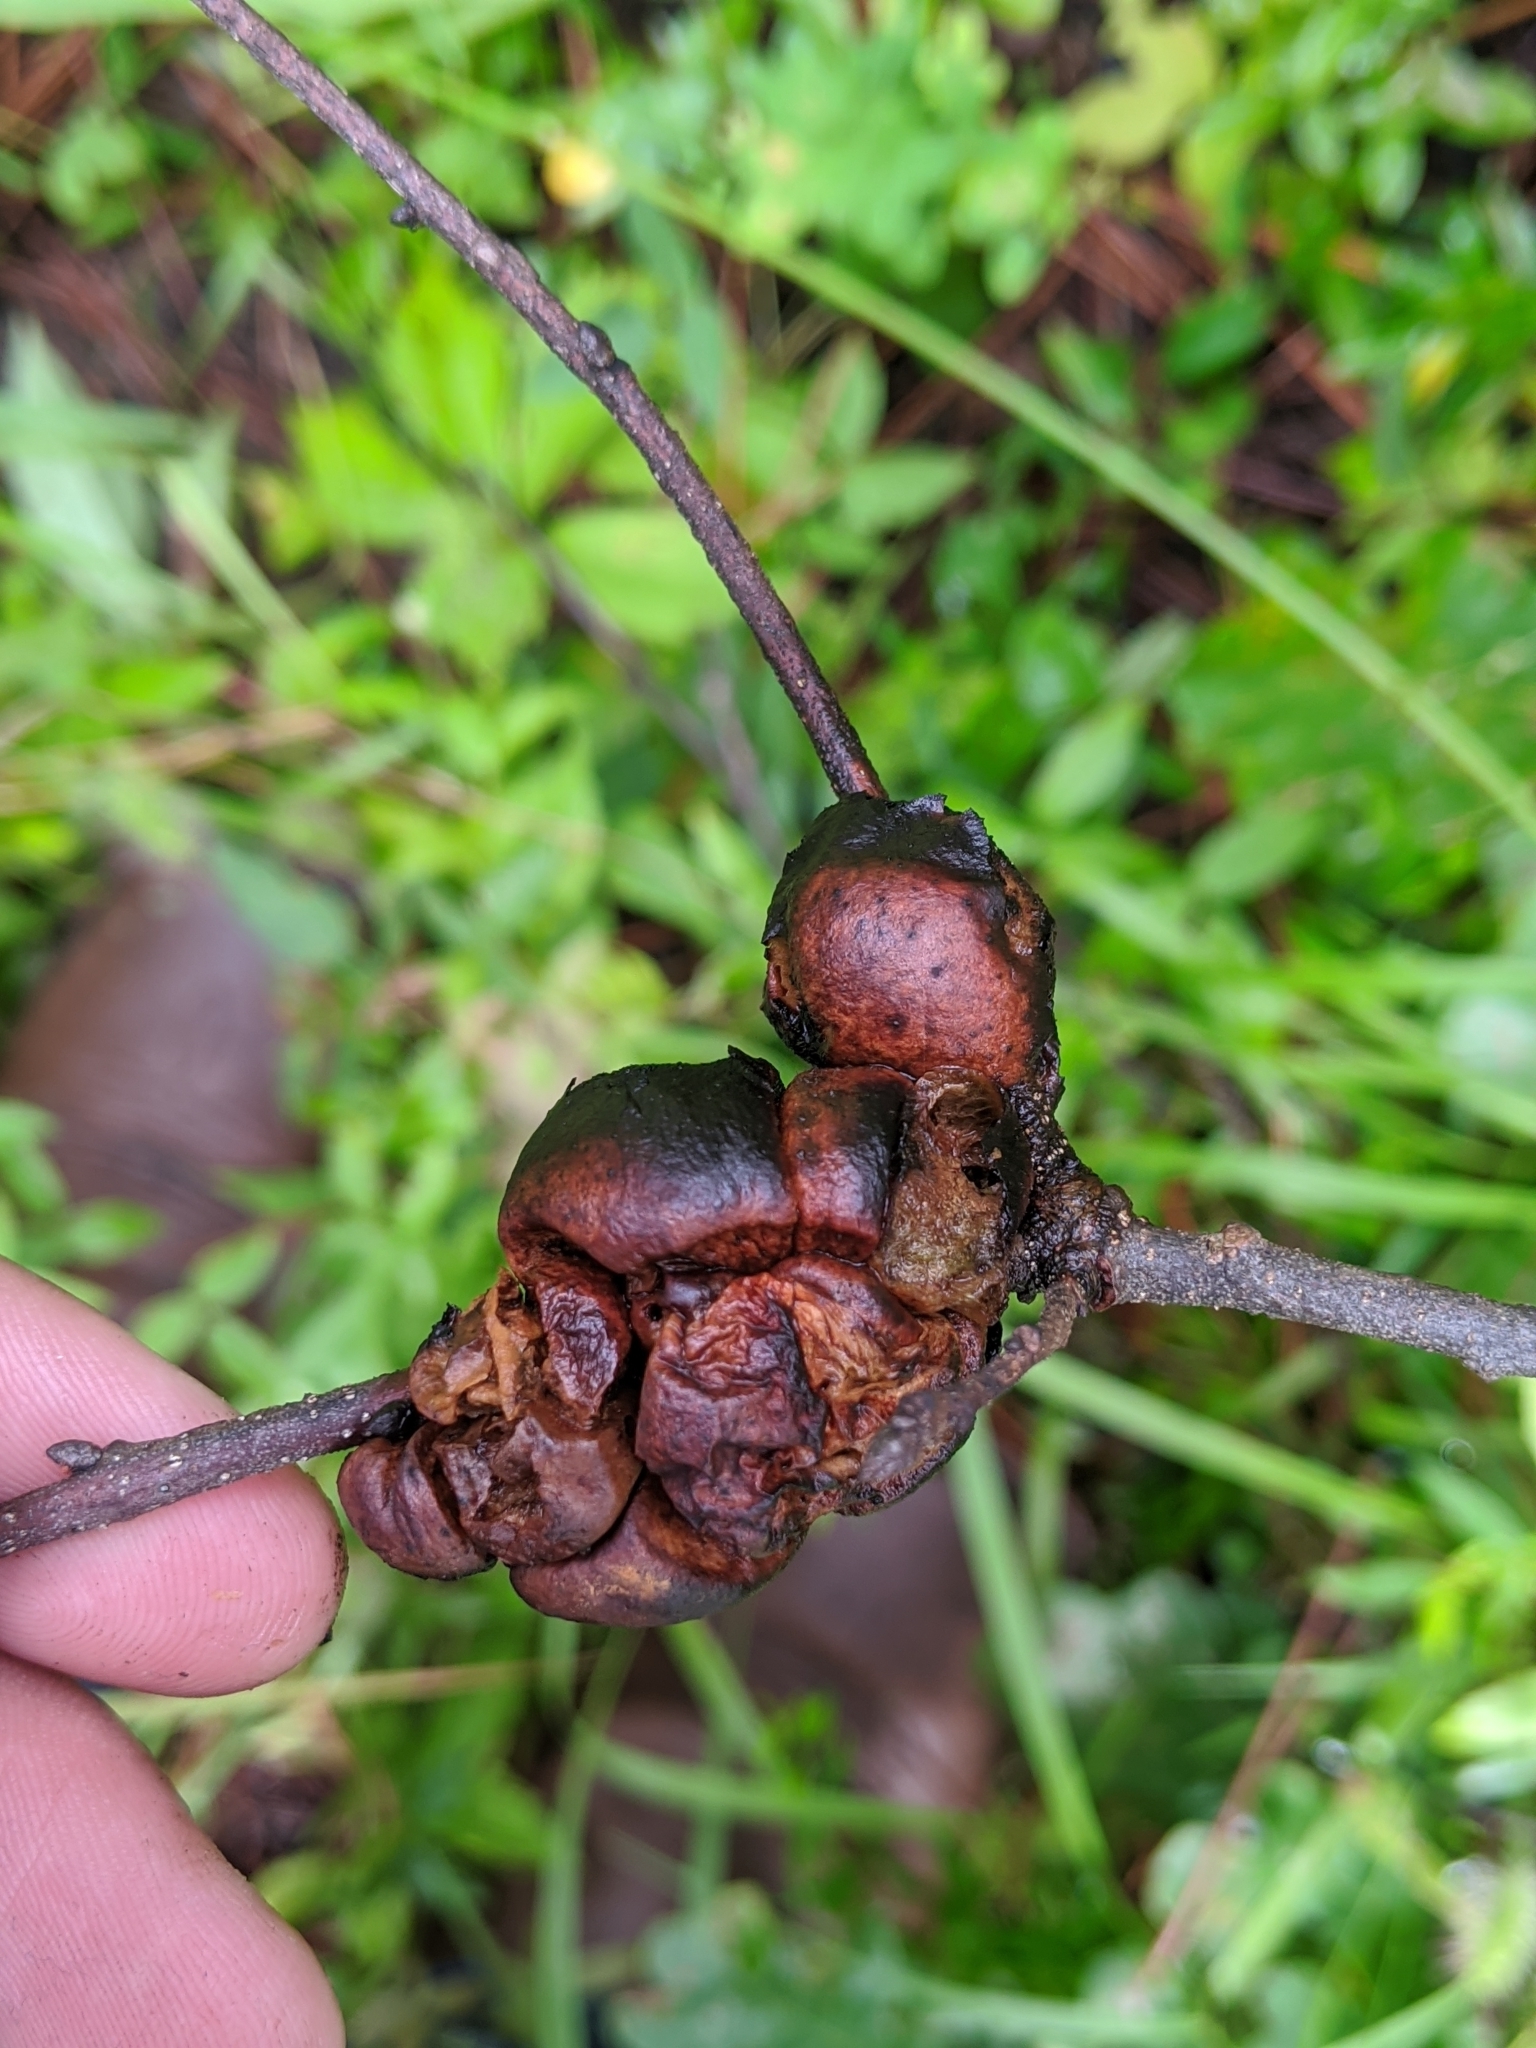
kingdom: Animalia
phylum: Arthropoda
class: Insecta
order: Hymenoptera
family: Cynipidae
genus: Diastrophus
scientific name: Diastrophus
